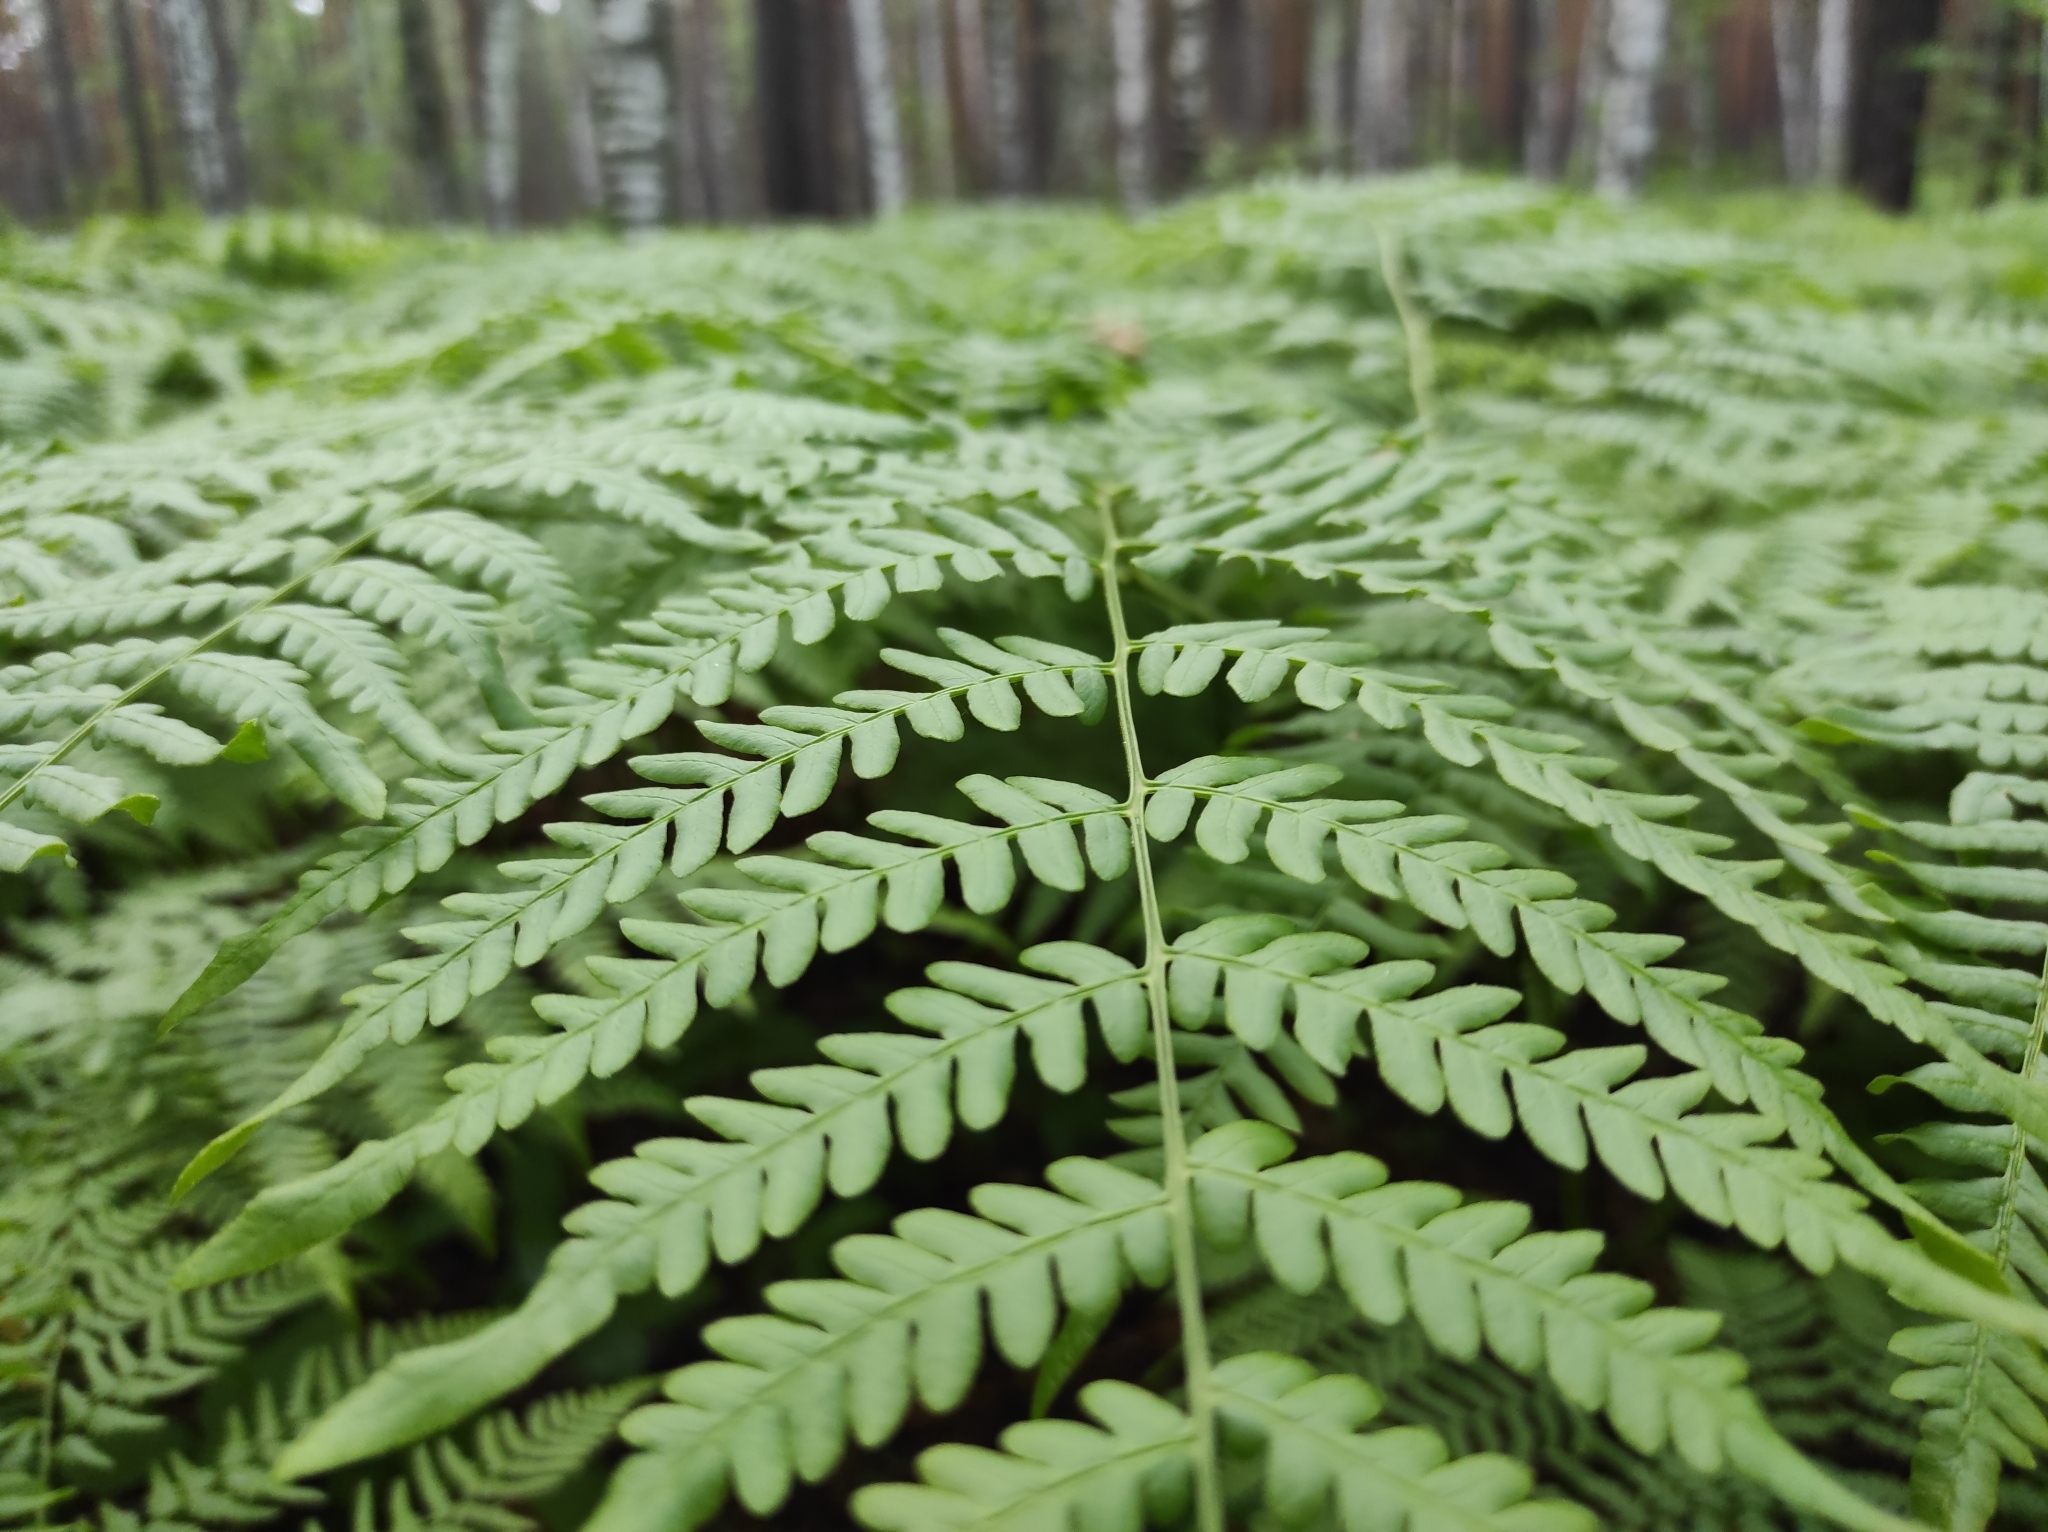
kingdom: Plantae
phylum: Tracheophyta
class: Polypodiopsida
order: Polypodiales
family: Dennstaedtiaceae
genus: Pteridium
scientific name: Pteridium aquilinum
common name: Bracken
